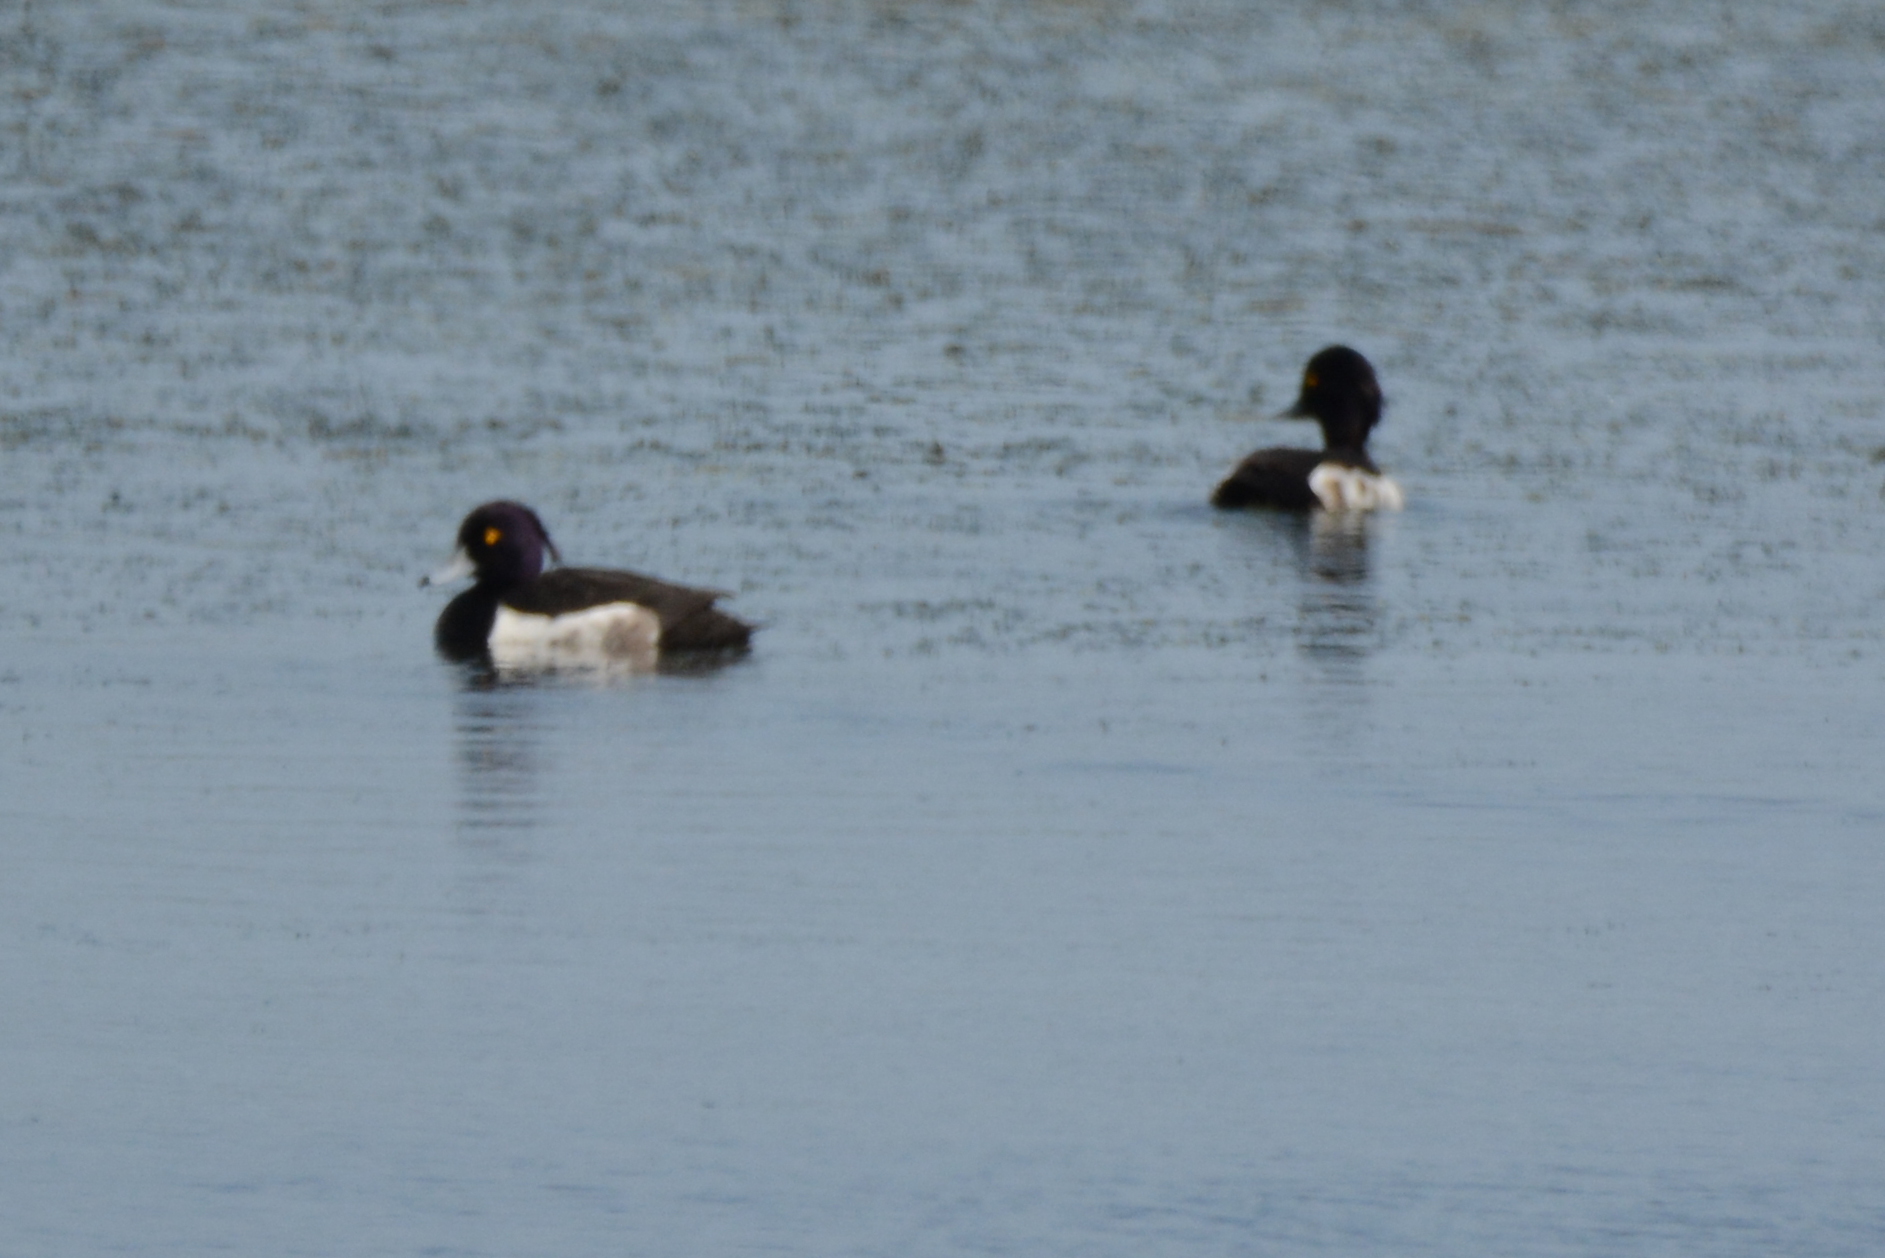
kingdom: Animalia
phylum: Chordata
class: Aves
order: Anseriformes
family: Anatidae
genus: Aythya
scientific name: Aythya fuligula
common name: Tufted duck
